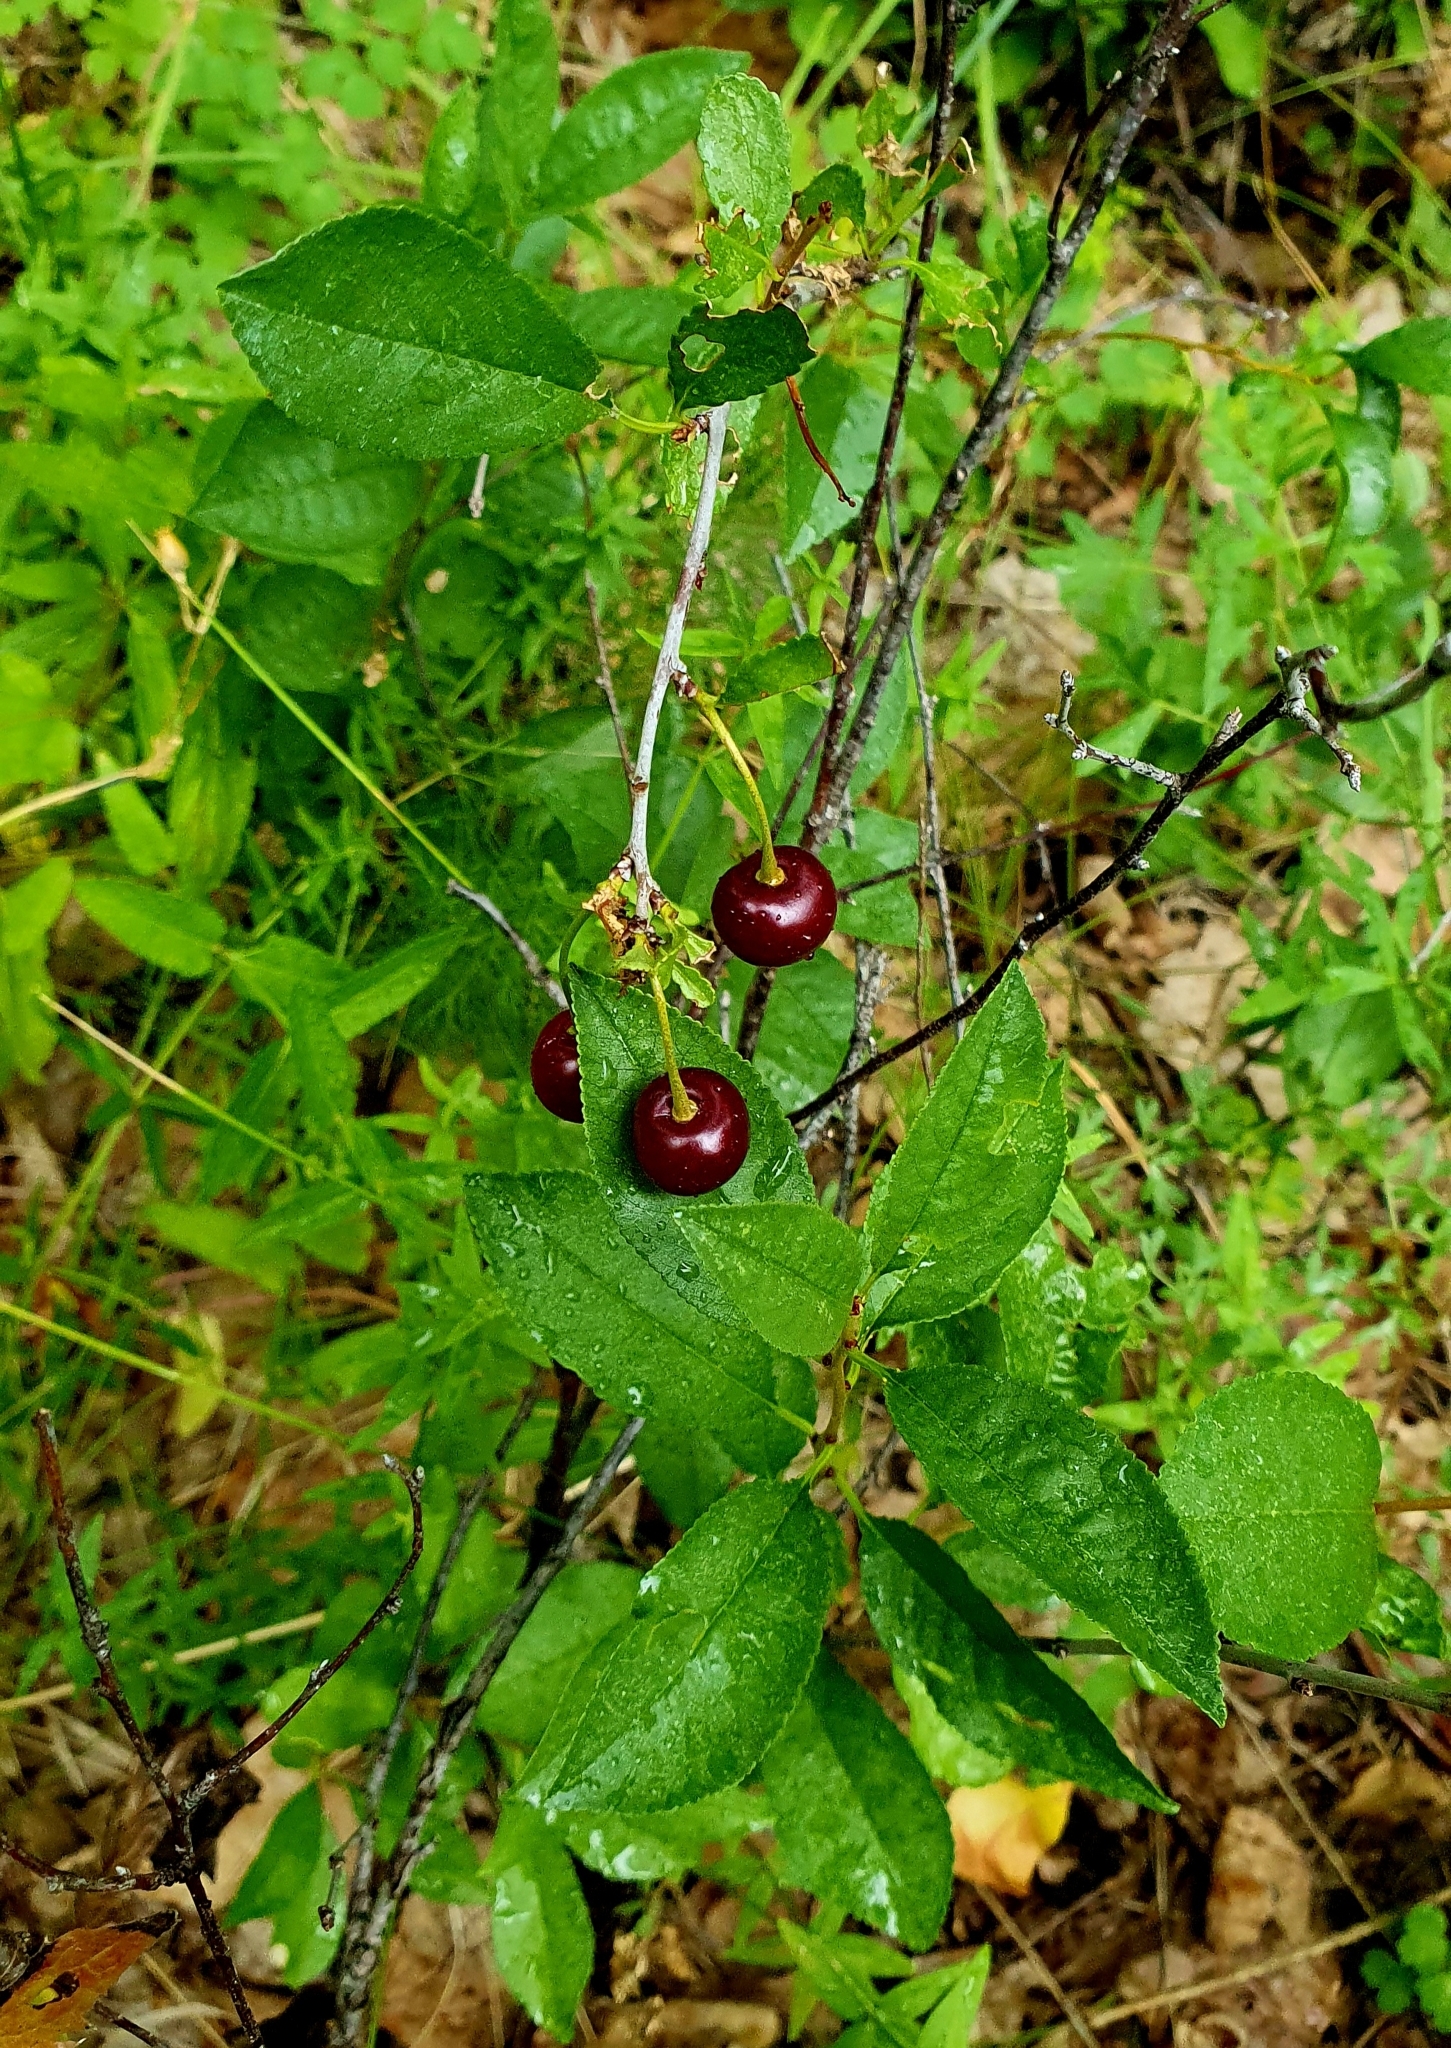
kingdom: Plantae
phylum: Tracheophyta
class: Magnoliopsida
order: Rosales
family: Rosaceae
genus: Prunus
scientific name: Prunus fruticosa
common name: European dwarf cherry
